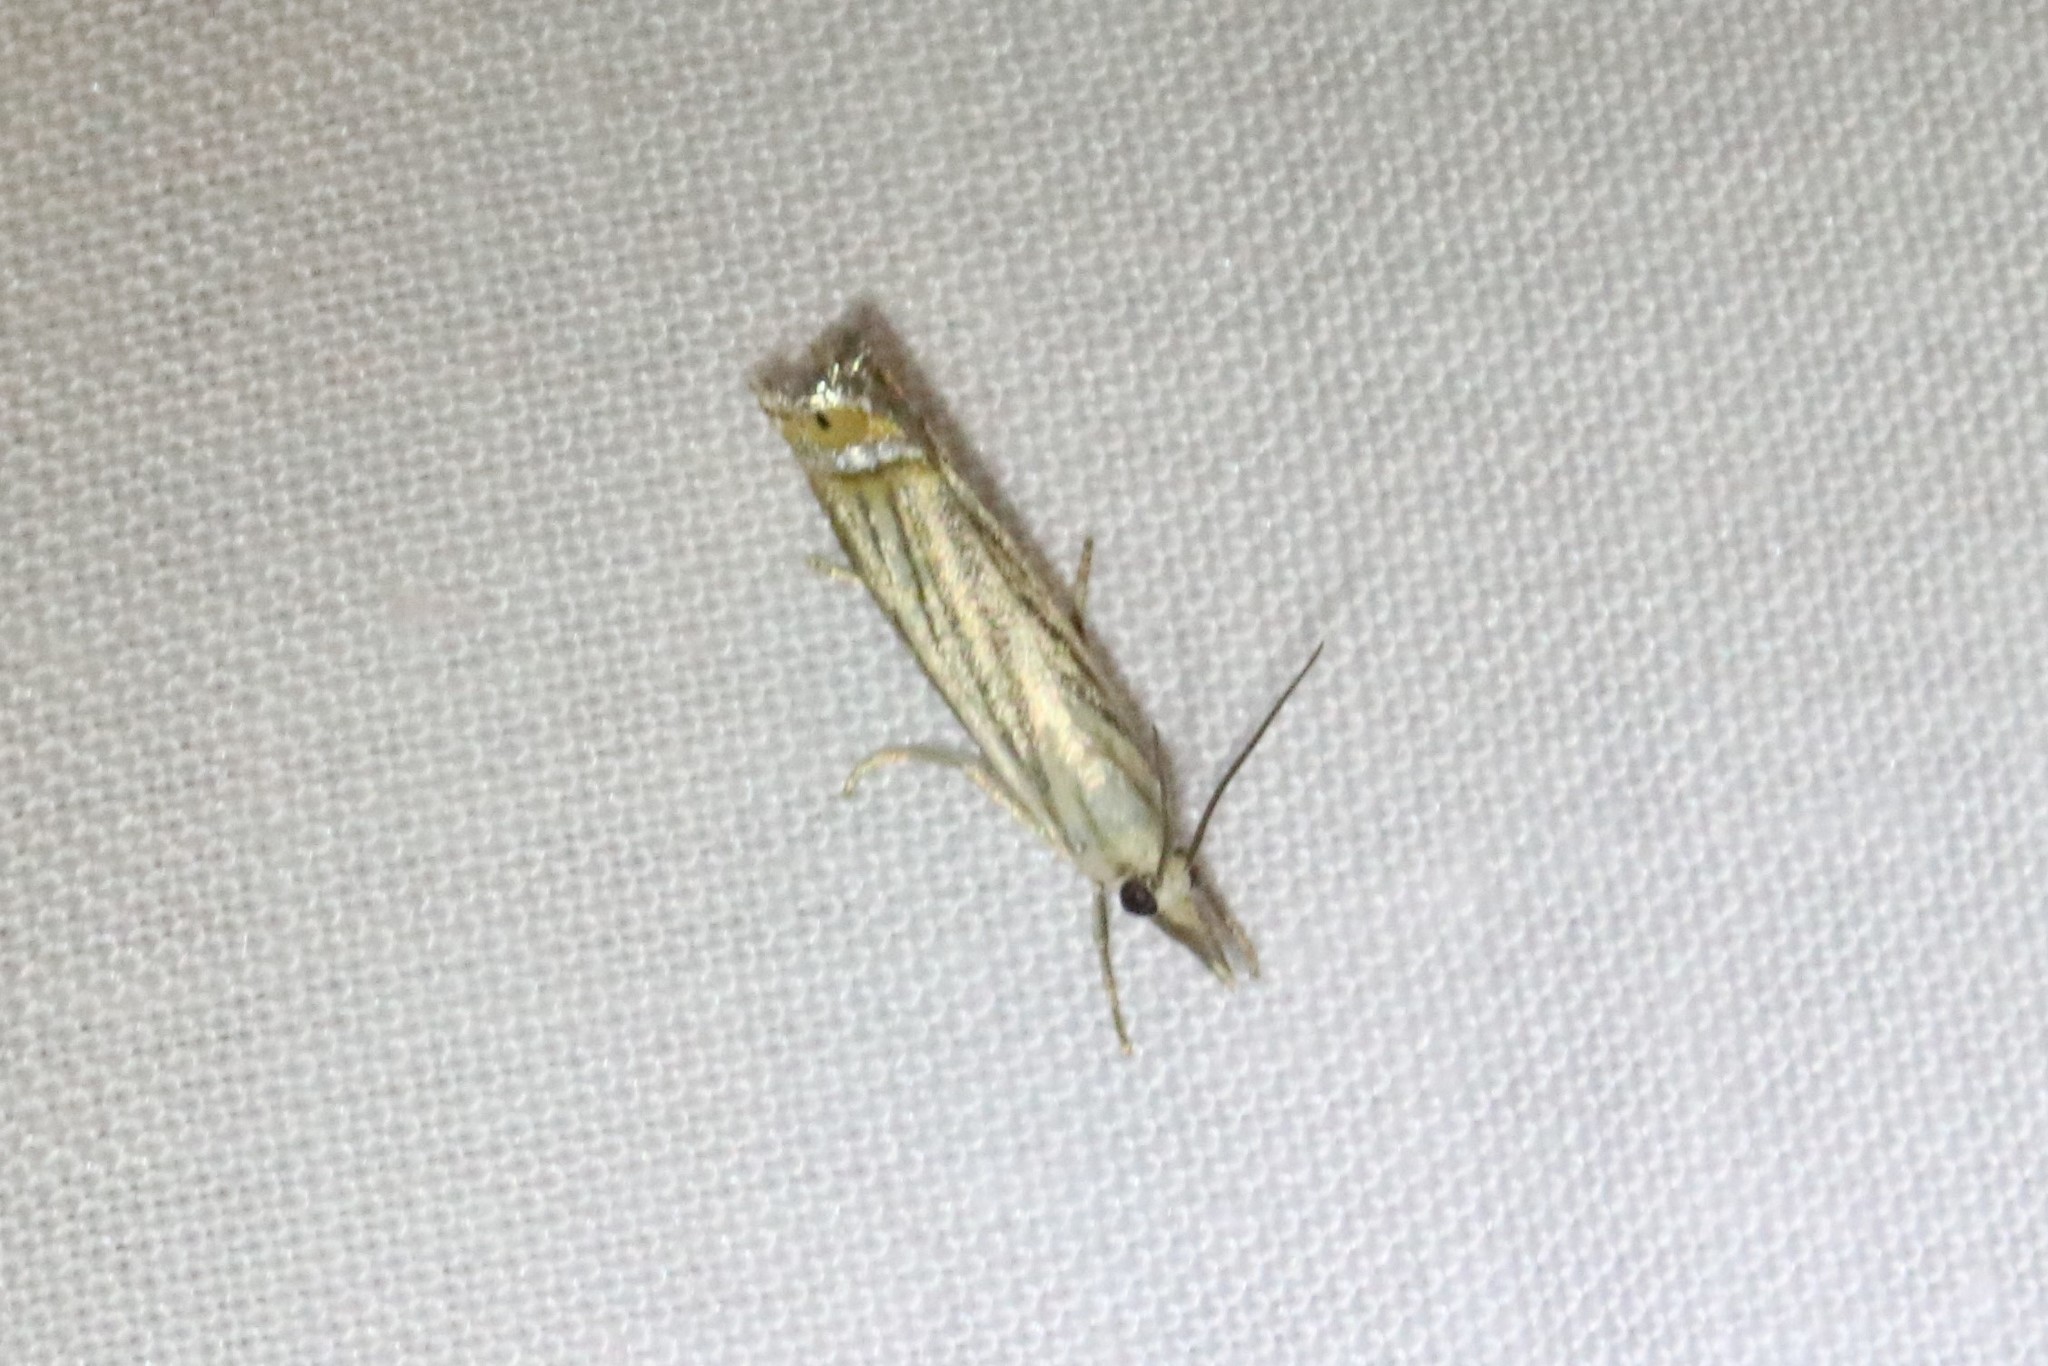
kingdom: Animalia
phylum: Arthropoda
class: Insecta
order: Lepidoptera
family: Crambidae
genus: Chrysoteuchia
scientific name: Chrysoteuchia topiarius
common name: Topiary grass-veneer
